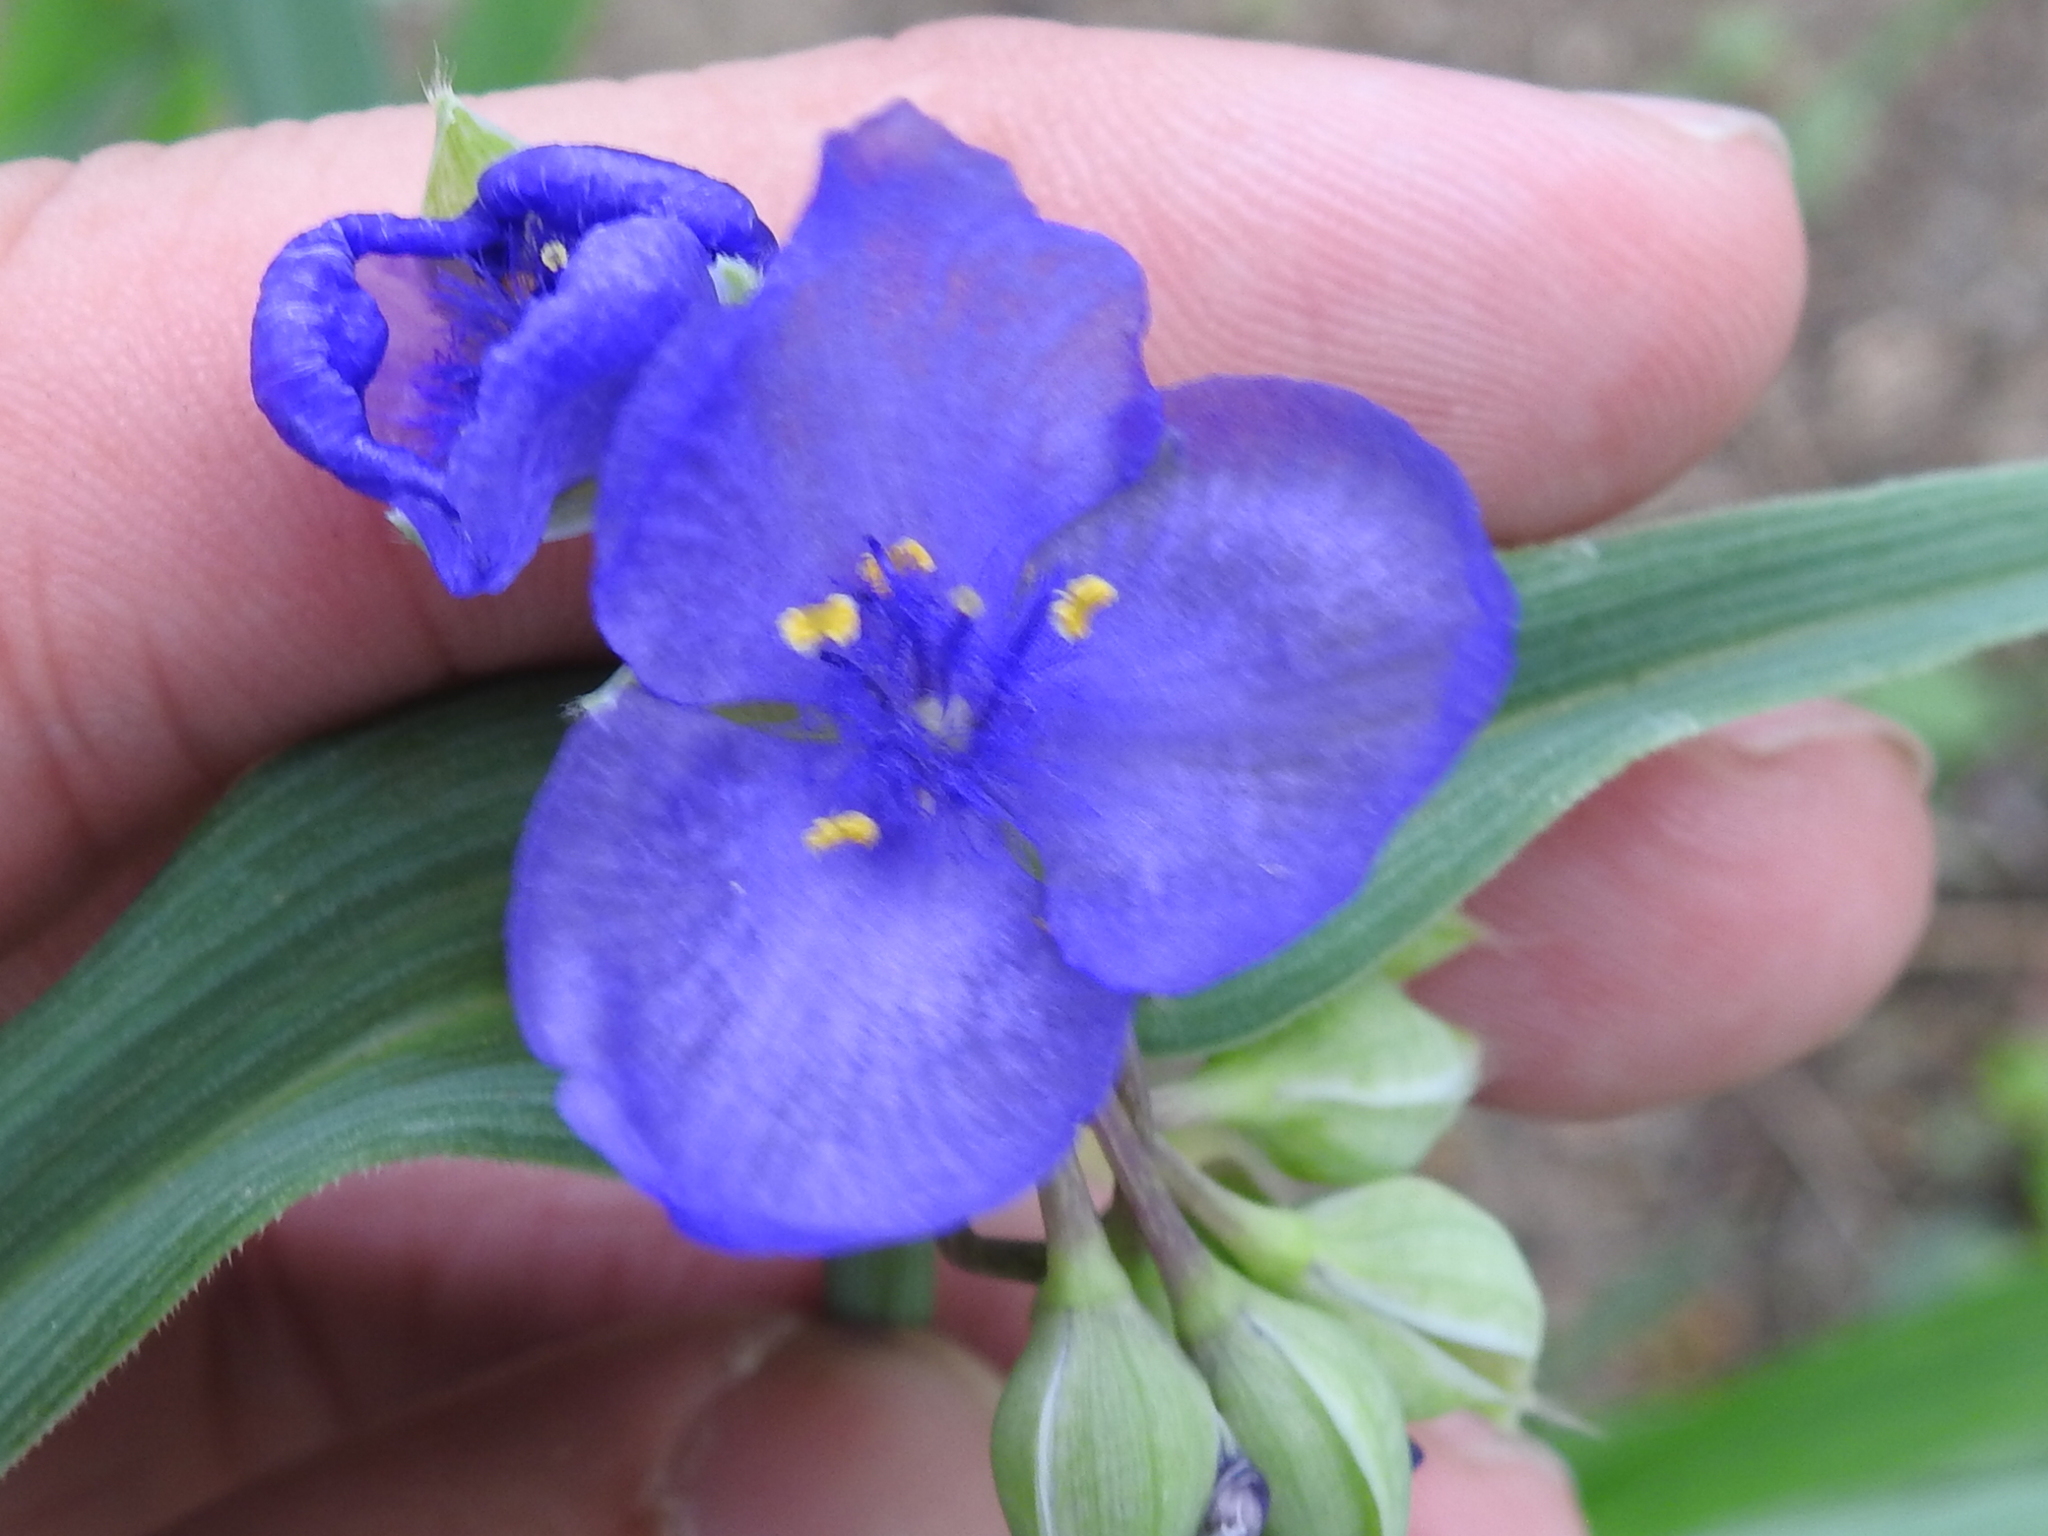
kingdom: Plantae
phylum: Tracheophyta
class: Liliopsida
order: Commelinales
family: Commelinaceae
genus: Tradescantia
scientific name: Tradescantia ohiensis
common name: Ohio spiderwort
